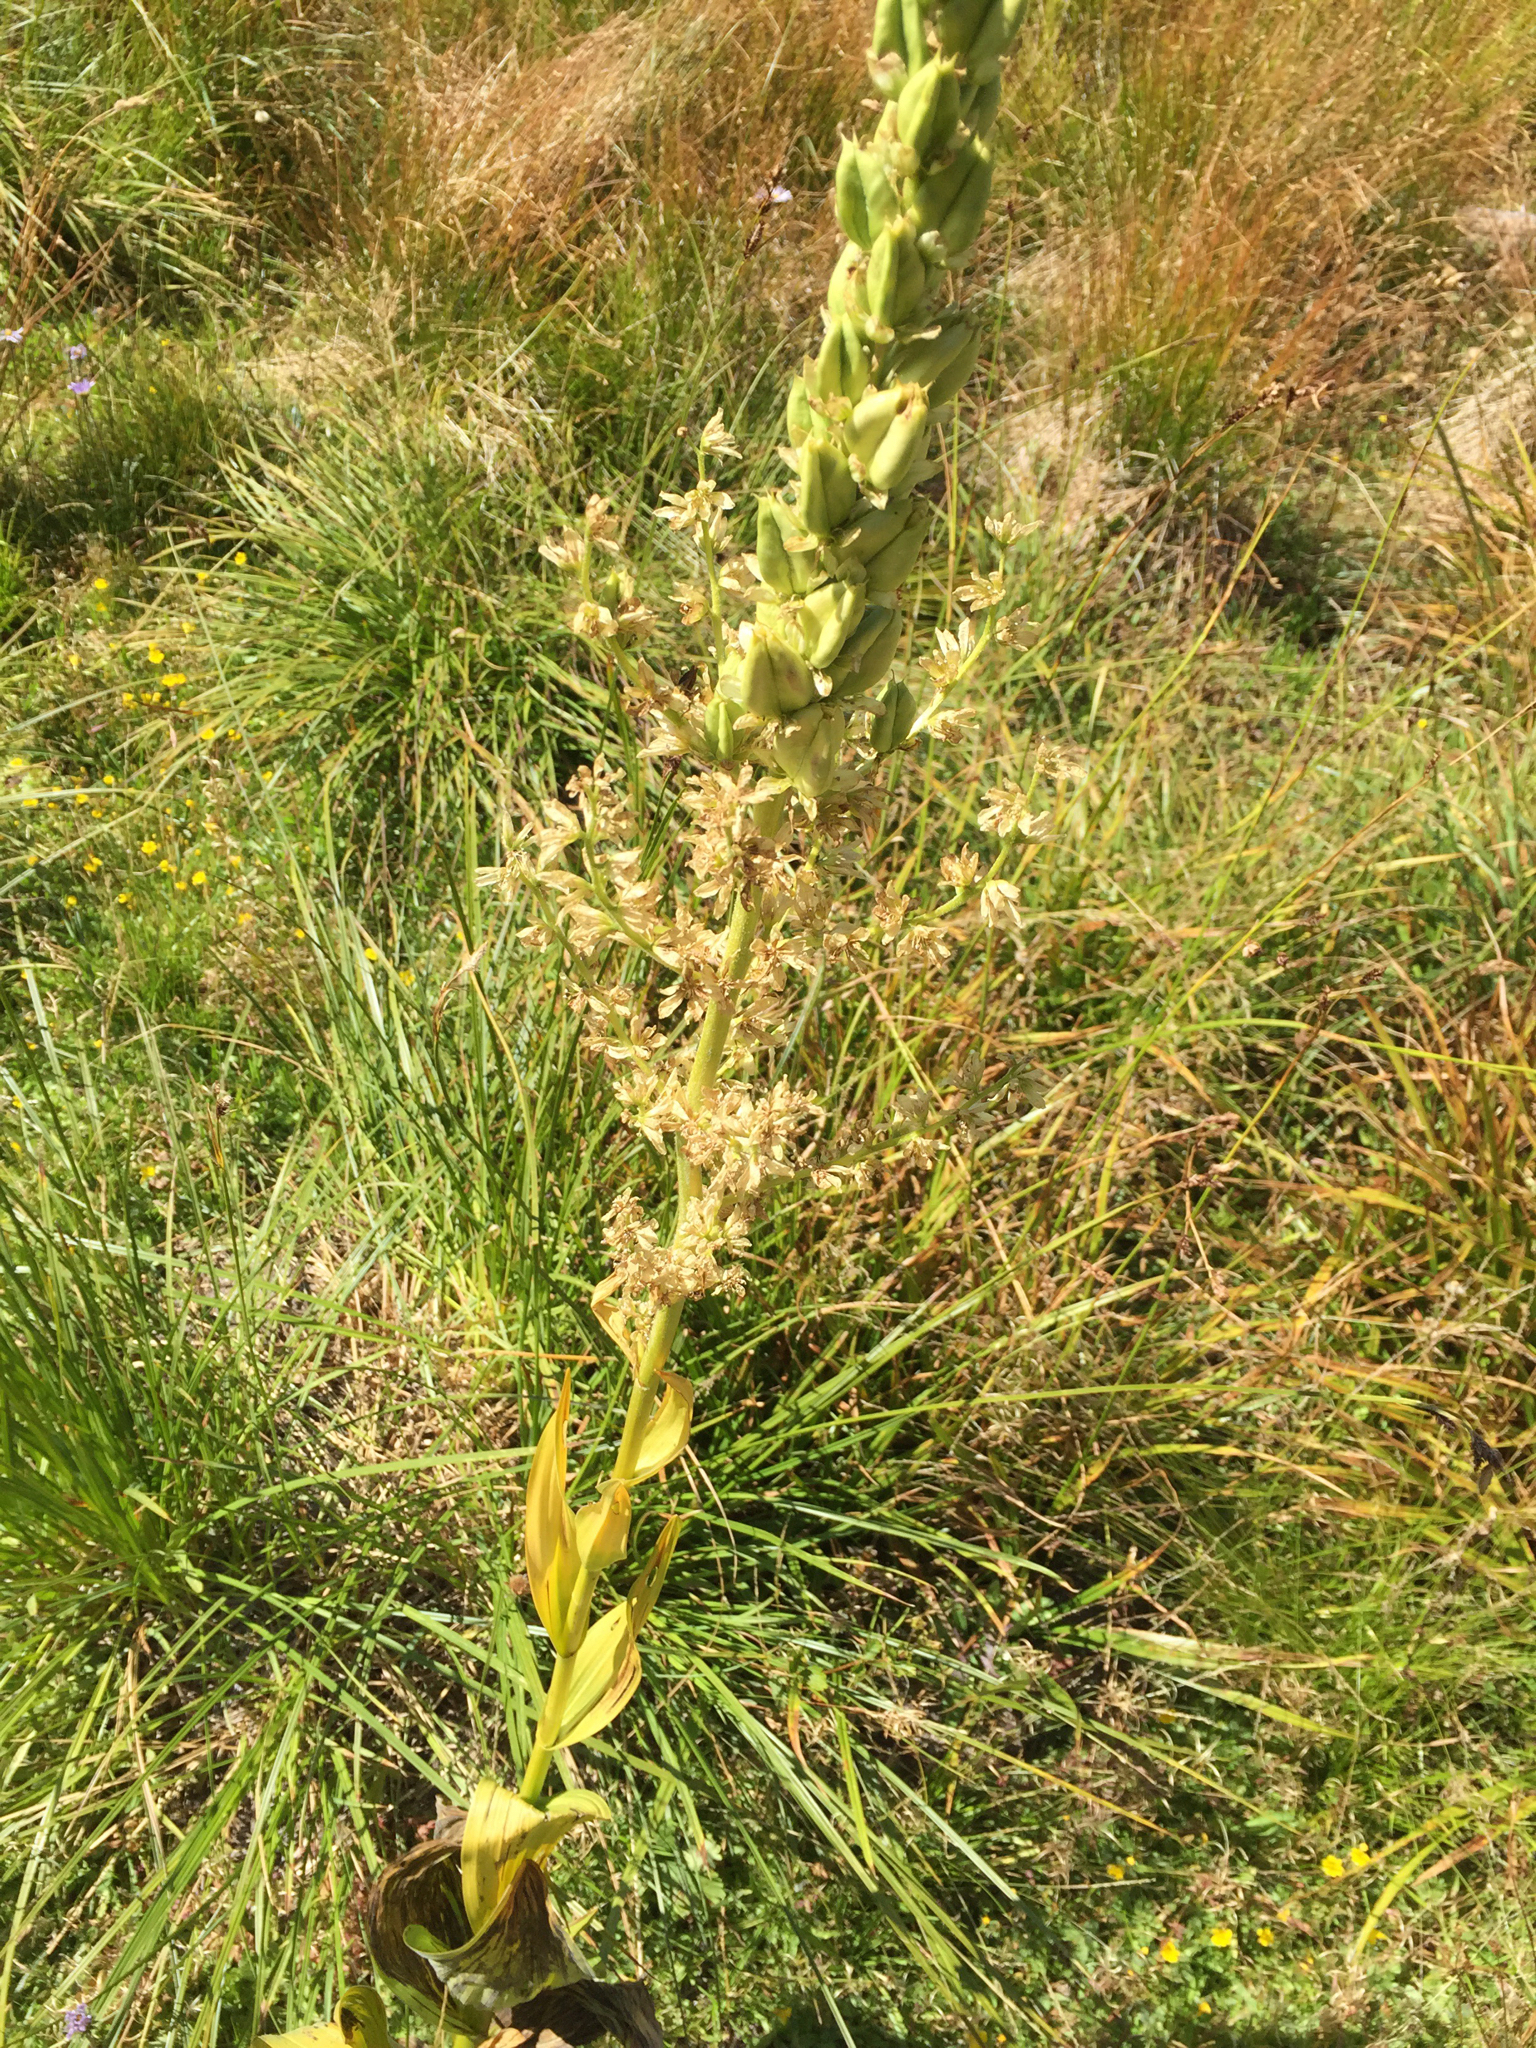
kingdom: Plantae
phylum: Tracheophyta
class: Liliopsida
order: Liliales
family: Melanthiaceae
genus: Veratrum
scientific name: Veratrum californicum
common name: California veratrum
